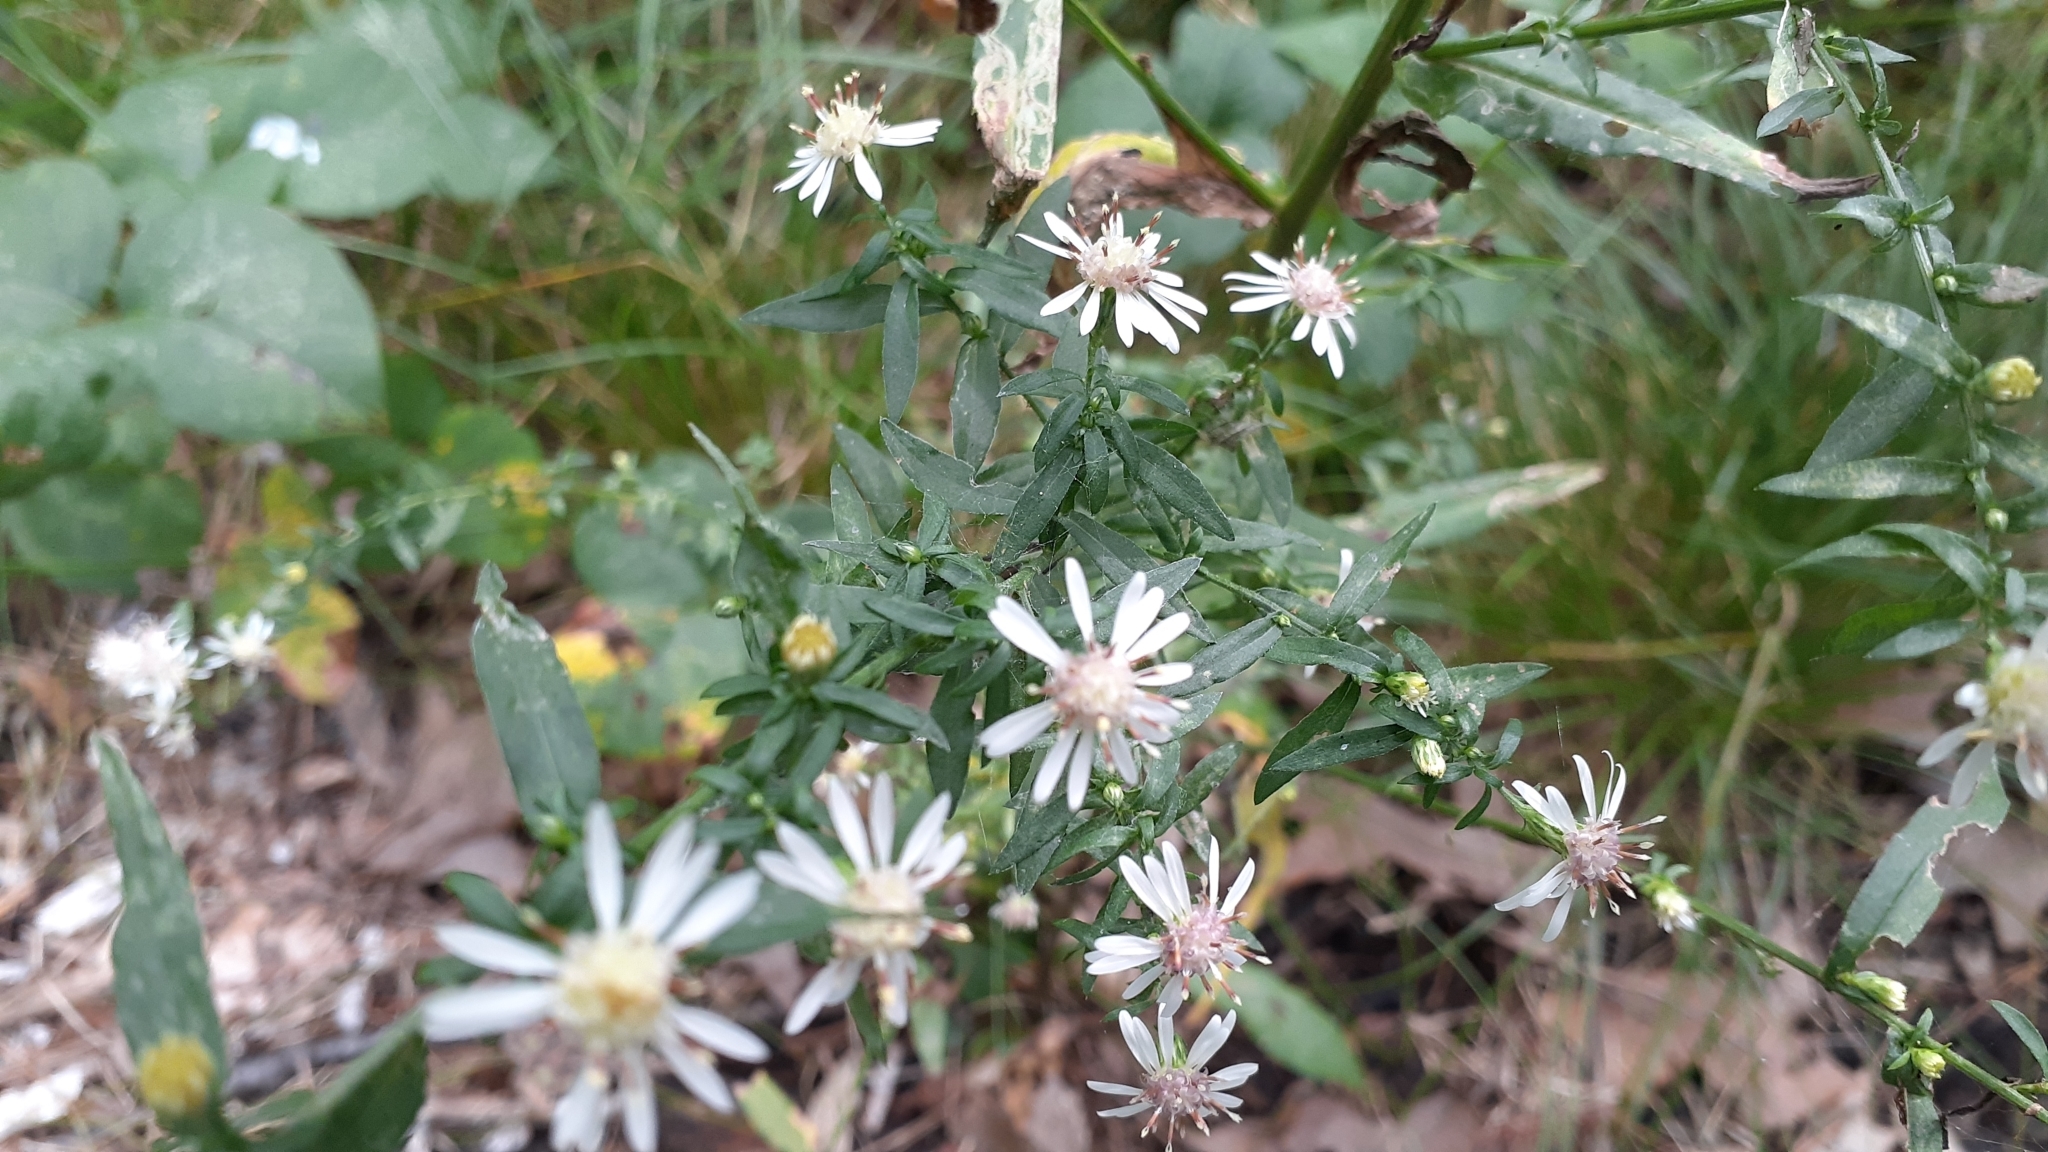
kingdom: Plantae
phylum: Tracheophyta
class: Magnoliopsida
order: Asterales
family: Asteraceae
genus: Symphyotrichum
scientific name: Symphyotrichum lateriflorum
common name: Calico aster
